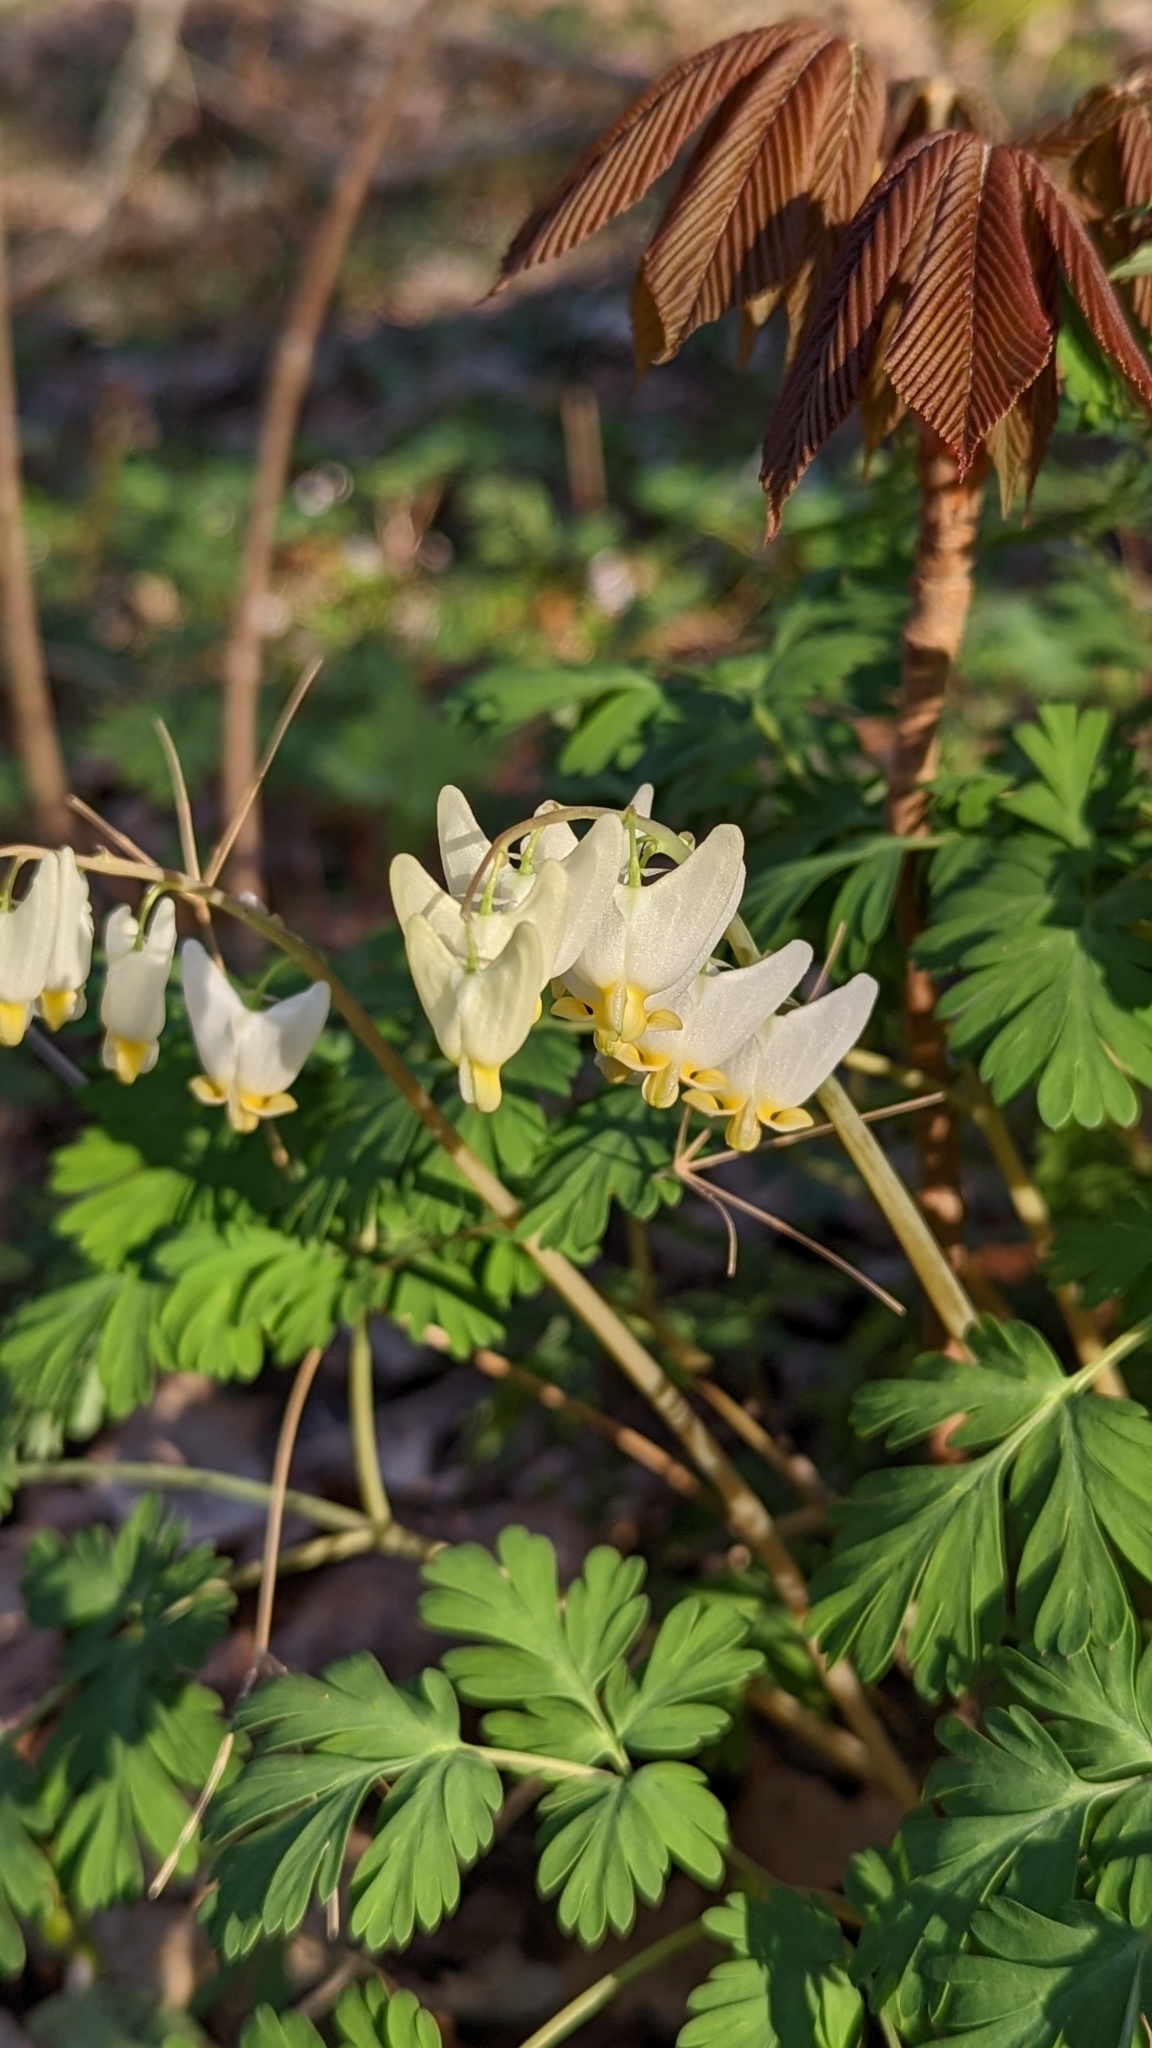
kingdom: Plantae
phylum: Tracheophyta
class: Magnoliopsida
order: Ranunculales
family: Papaveraceae
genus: Dicentra
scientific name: Dicentra cucullaria
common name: Dutchman's breeches
